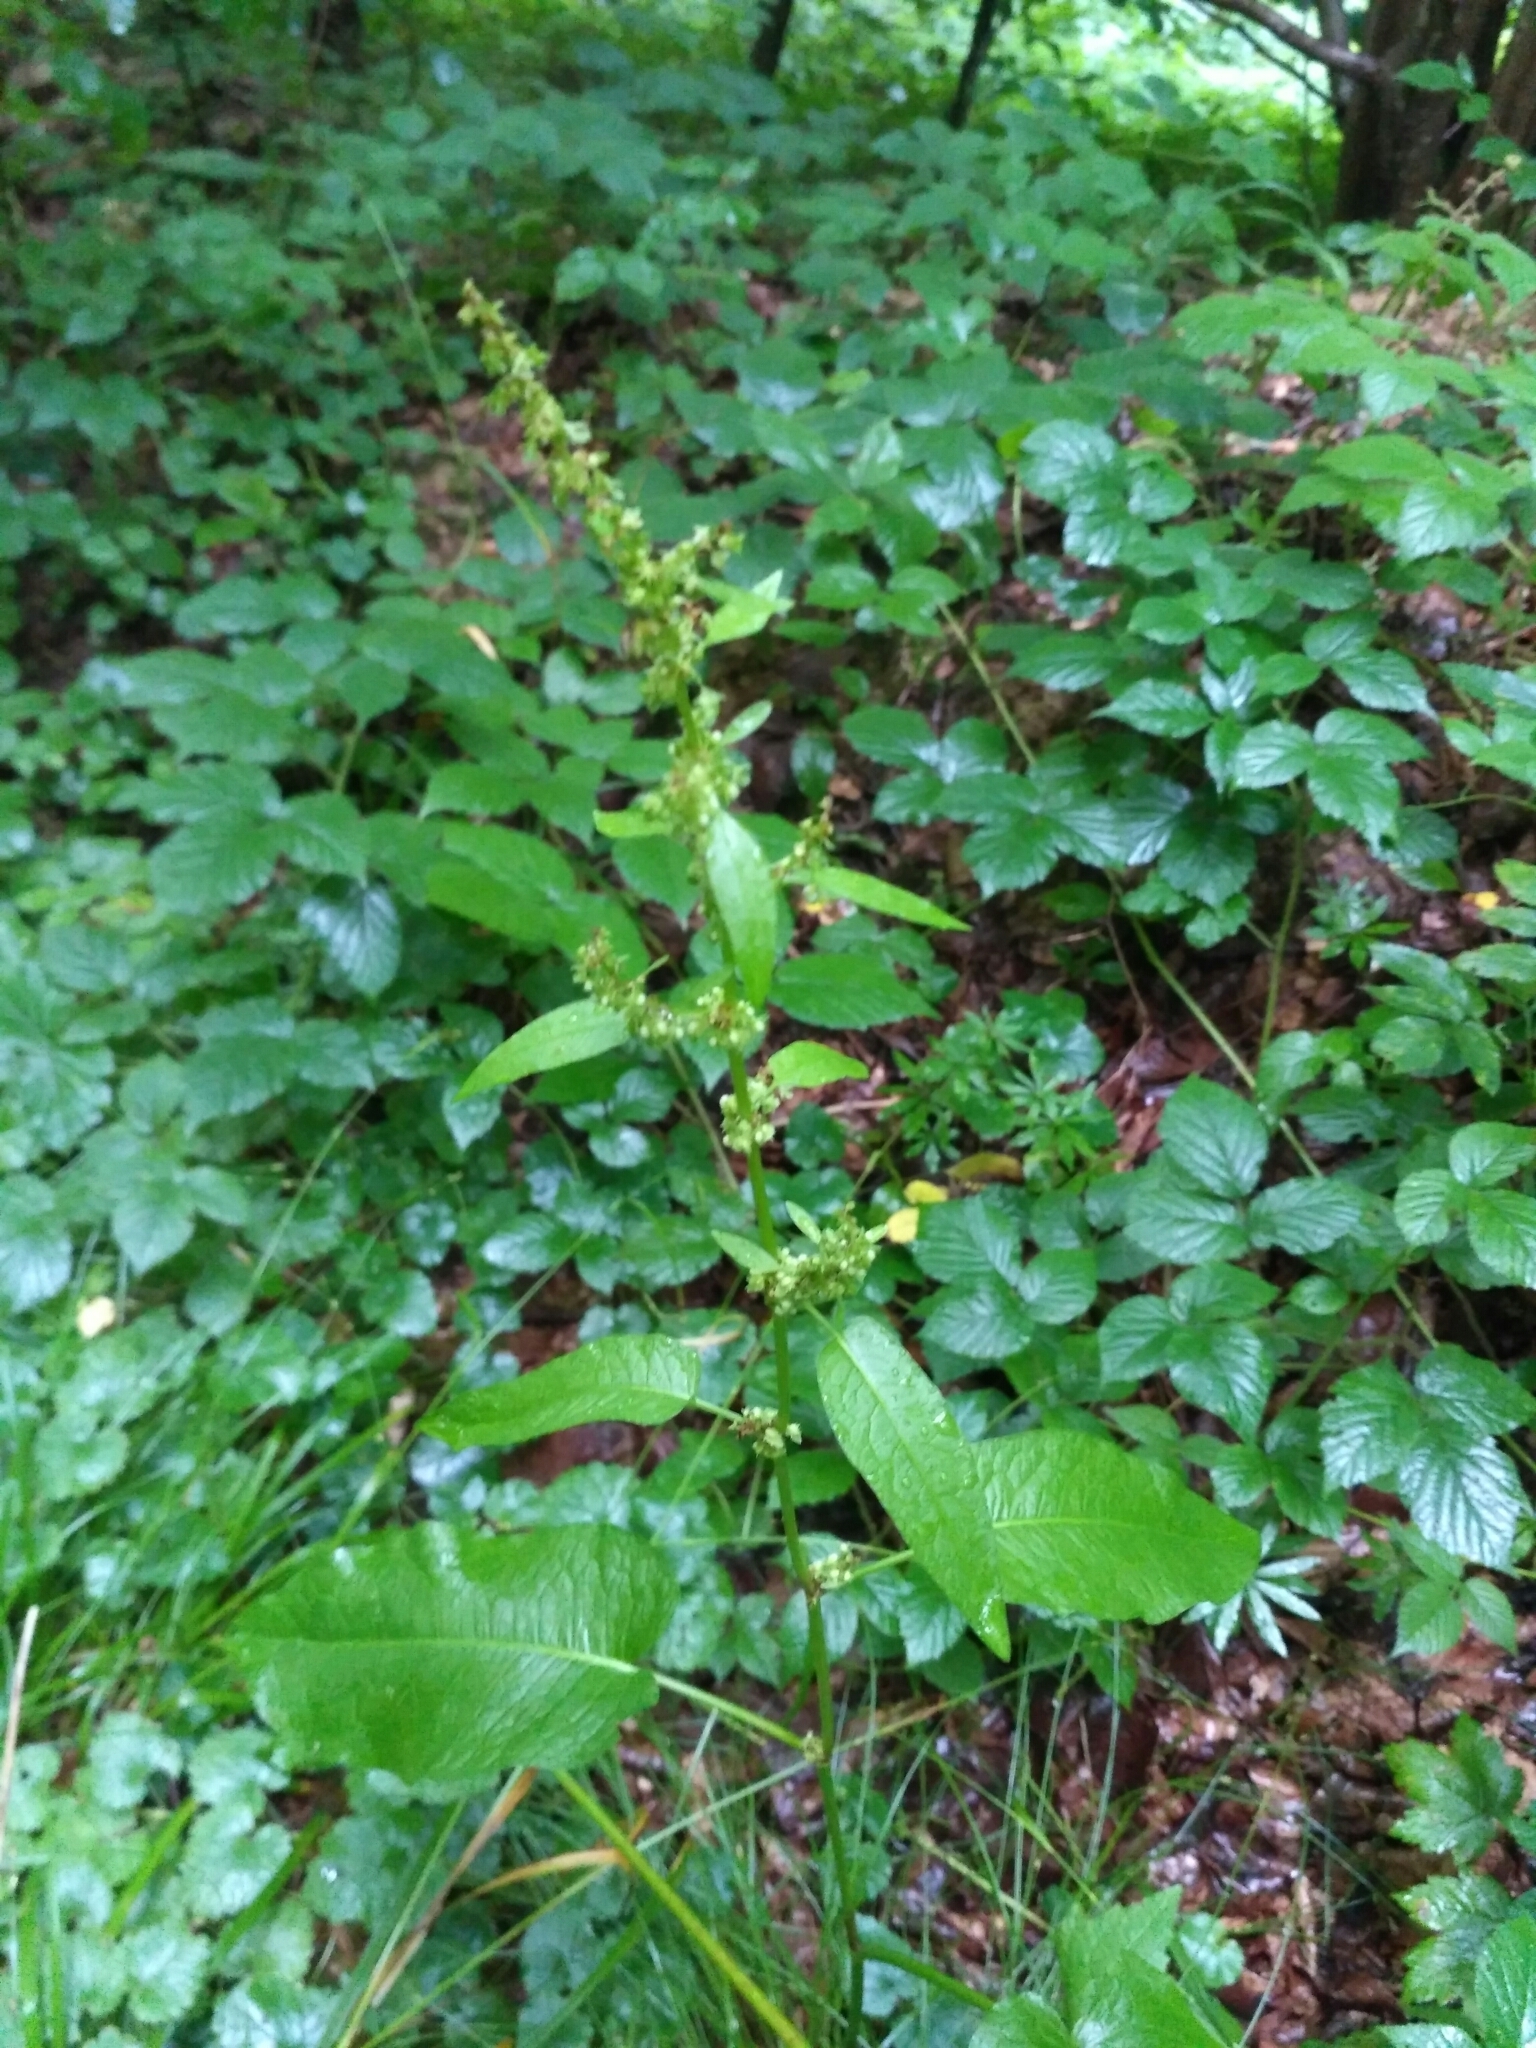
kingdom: Plantae
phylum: Tracheophyta
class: Magnoliopsida
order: Caryophyllales
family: Polygonaceae
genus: Rumex
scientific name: Rumex obtusifolius
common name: Bitter dock
